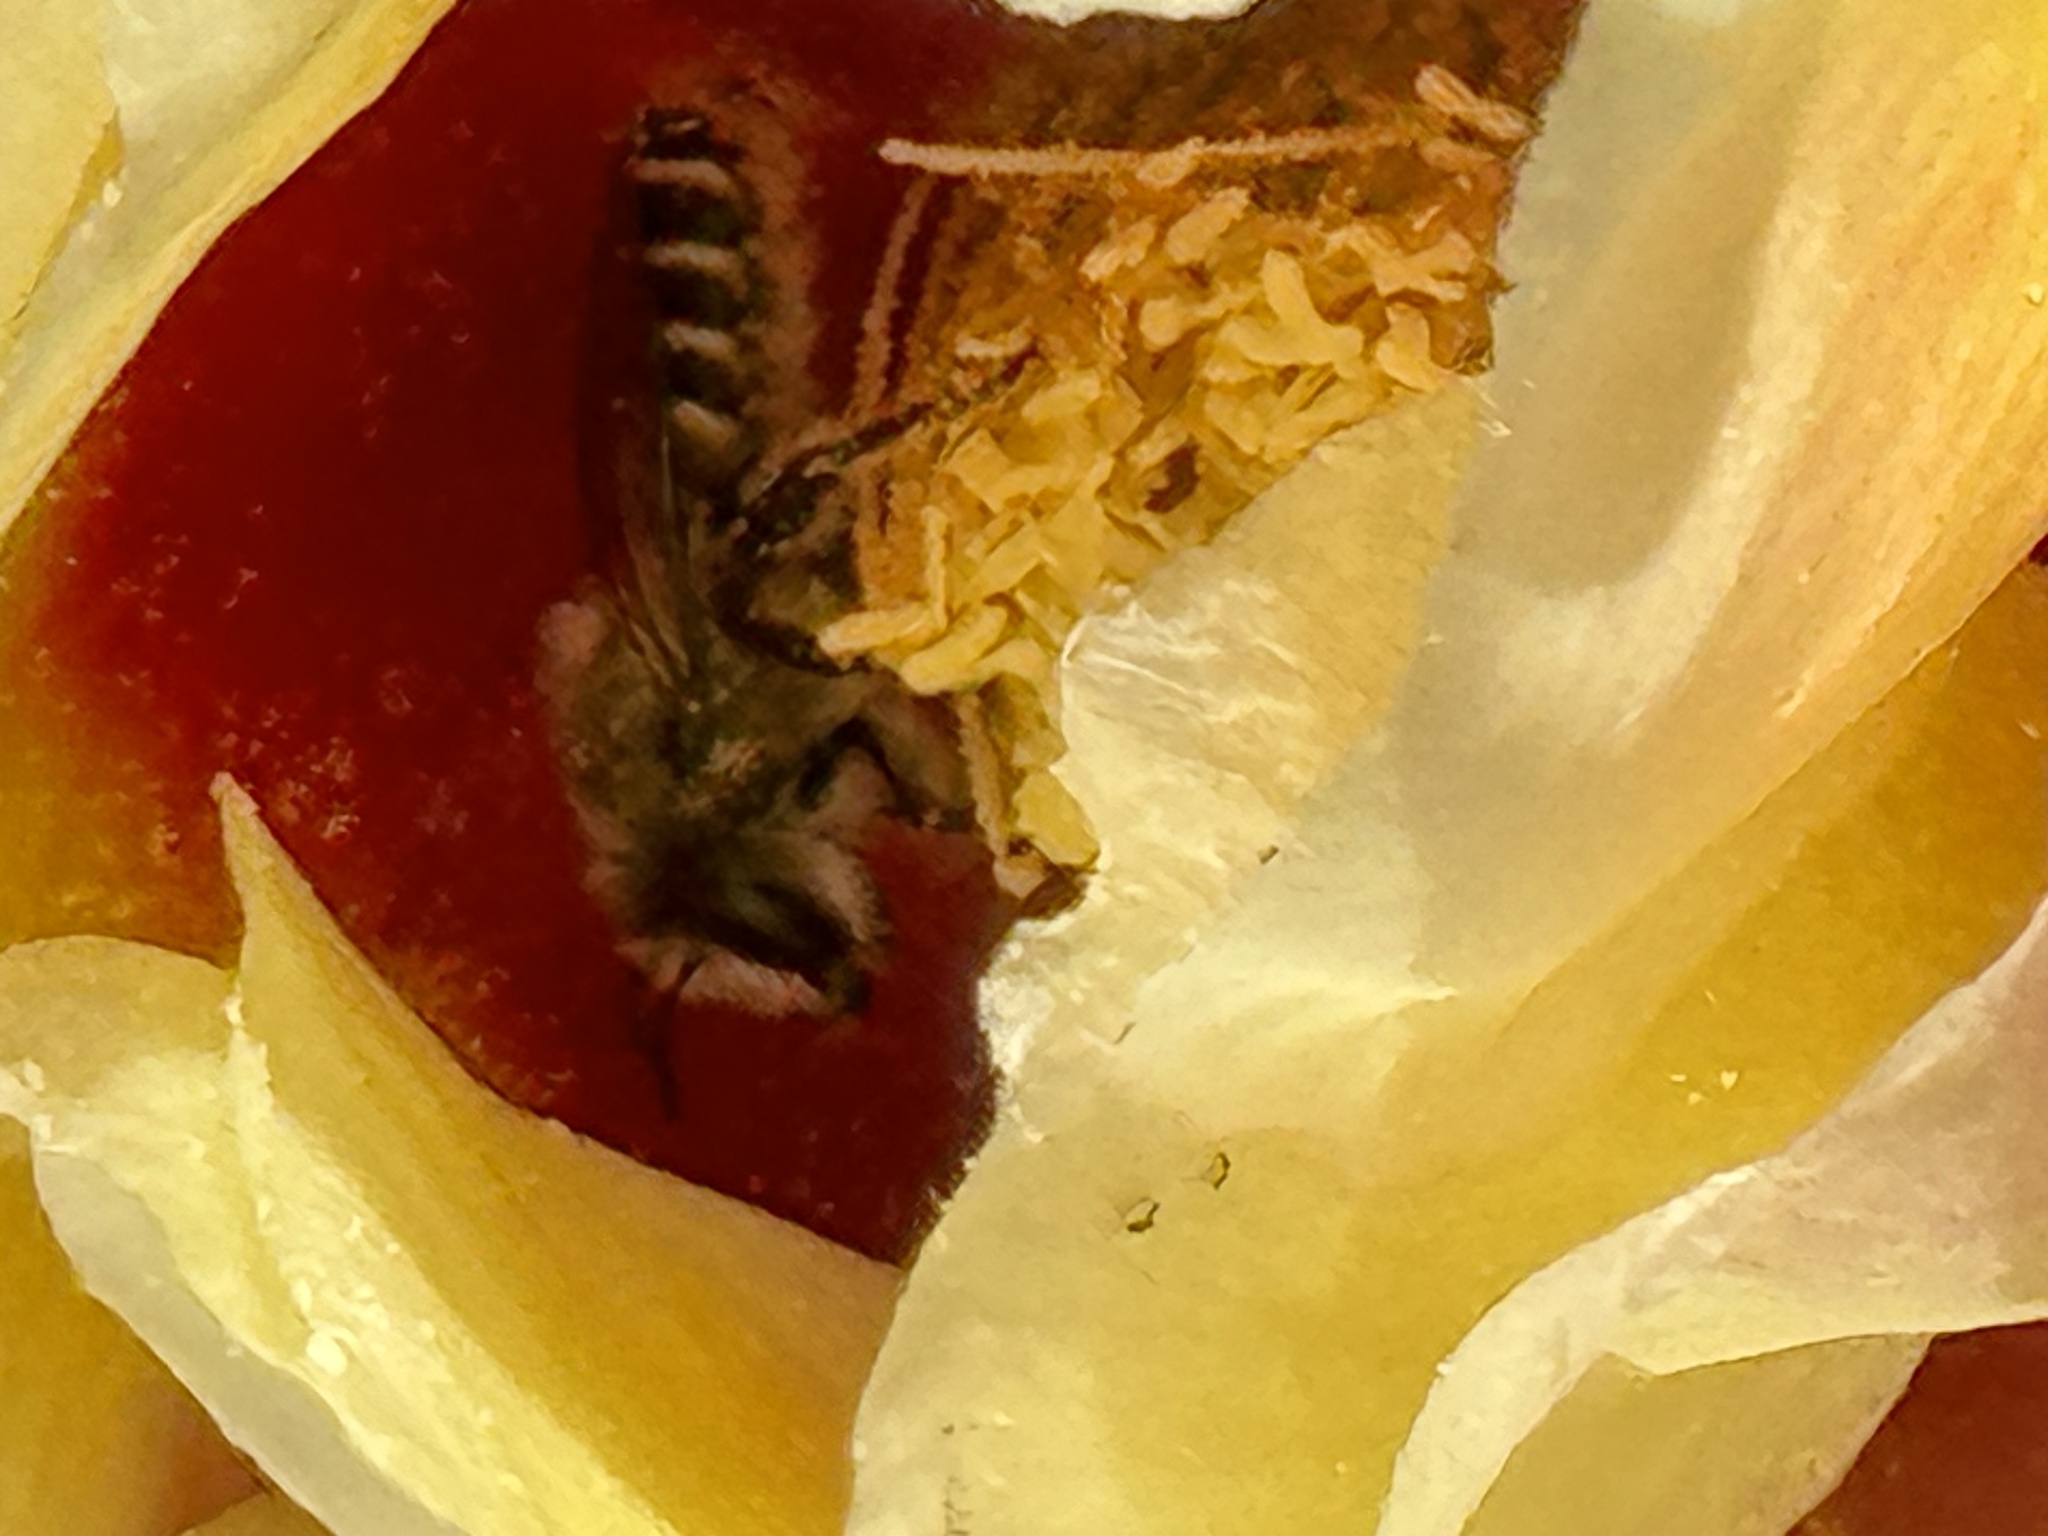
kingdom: Animalia
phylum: Arthropoda
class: Insecta
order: Hymenoptera
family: Megachilidae
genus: Lithurgopsis
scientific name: Lithurgopsis apicalis
